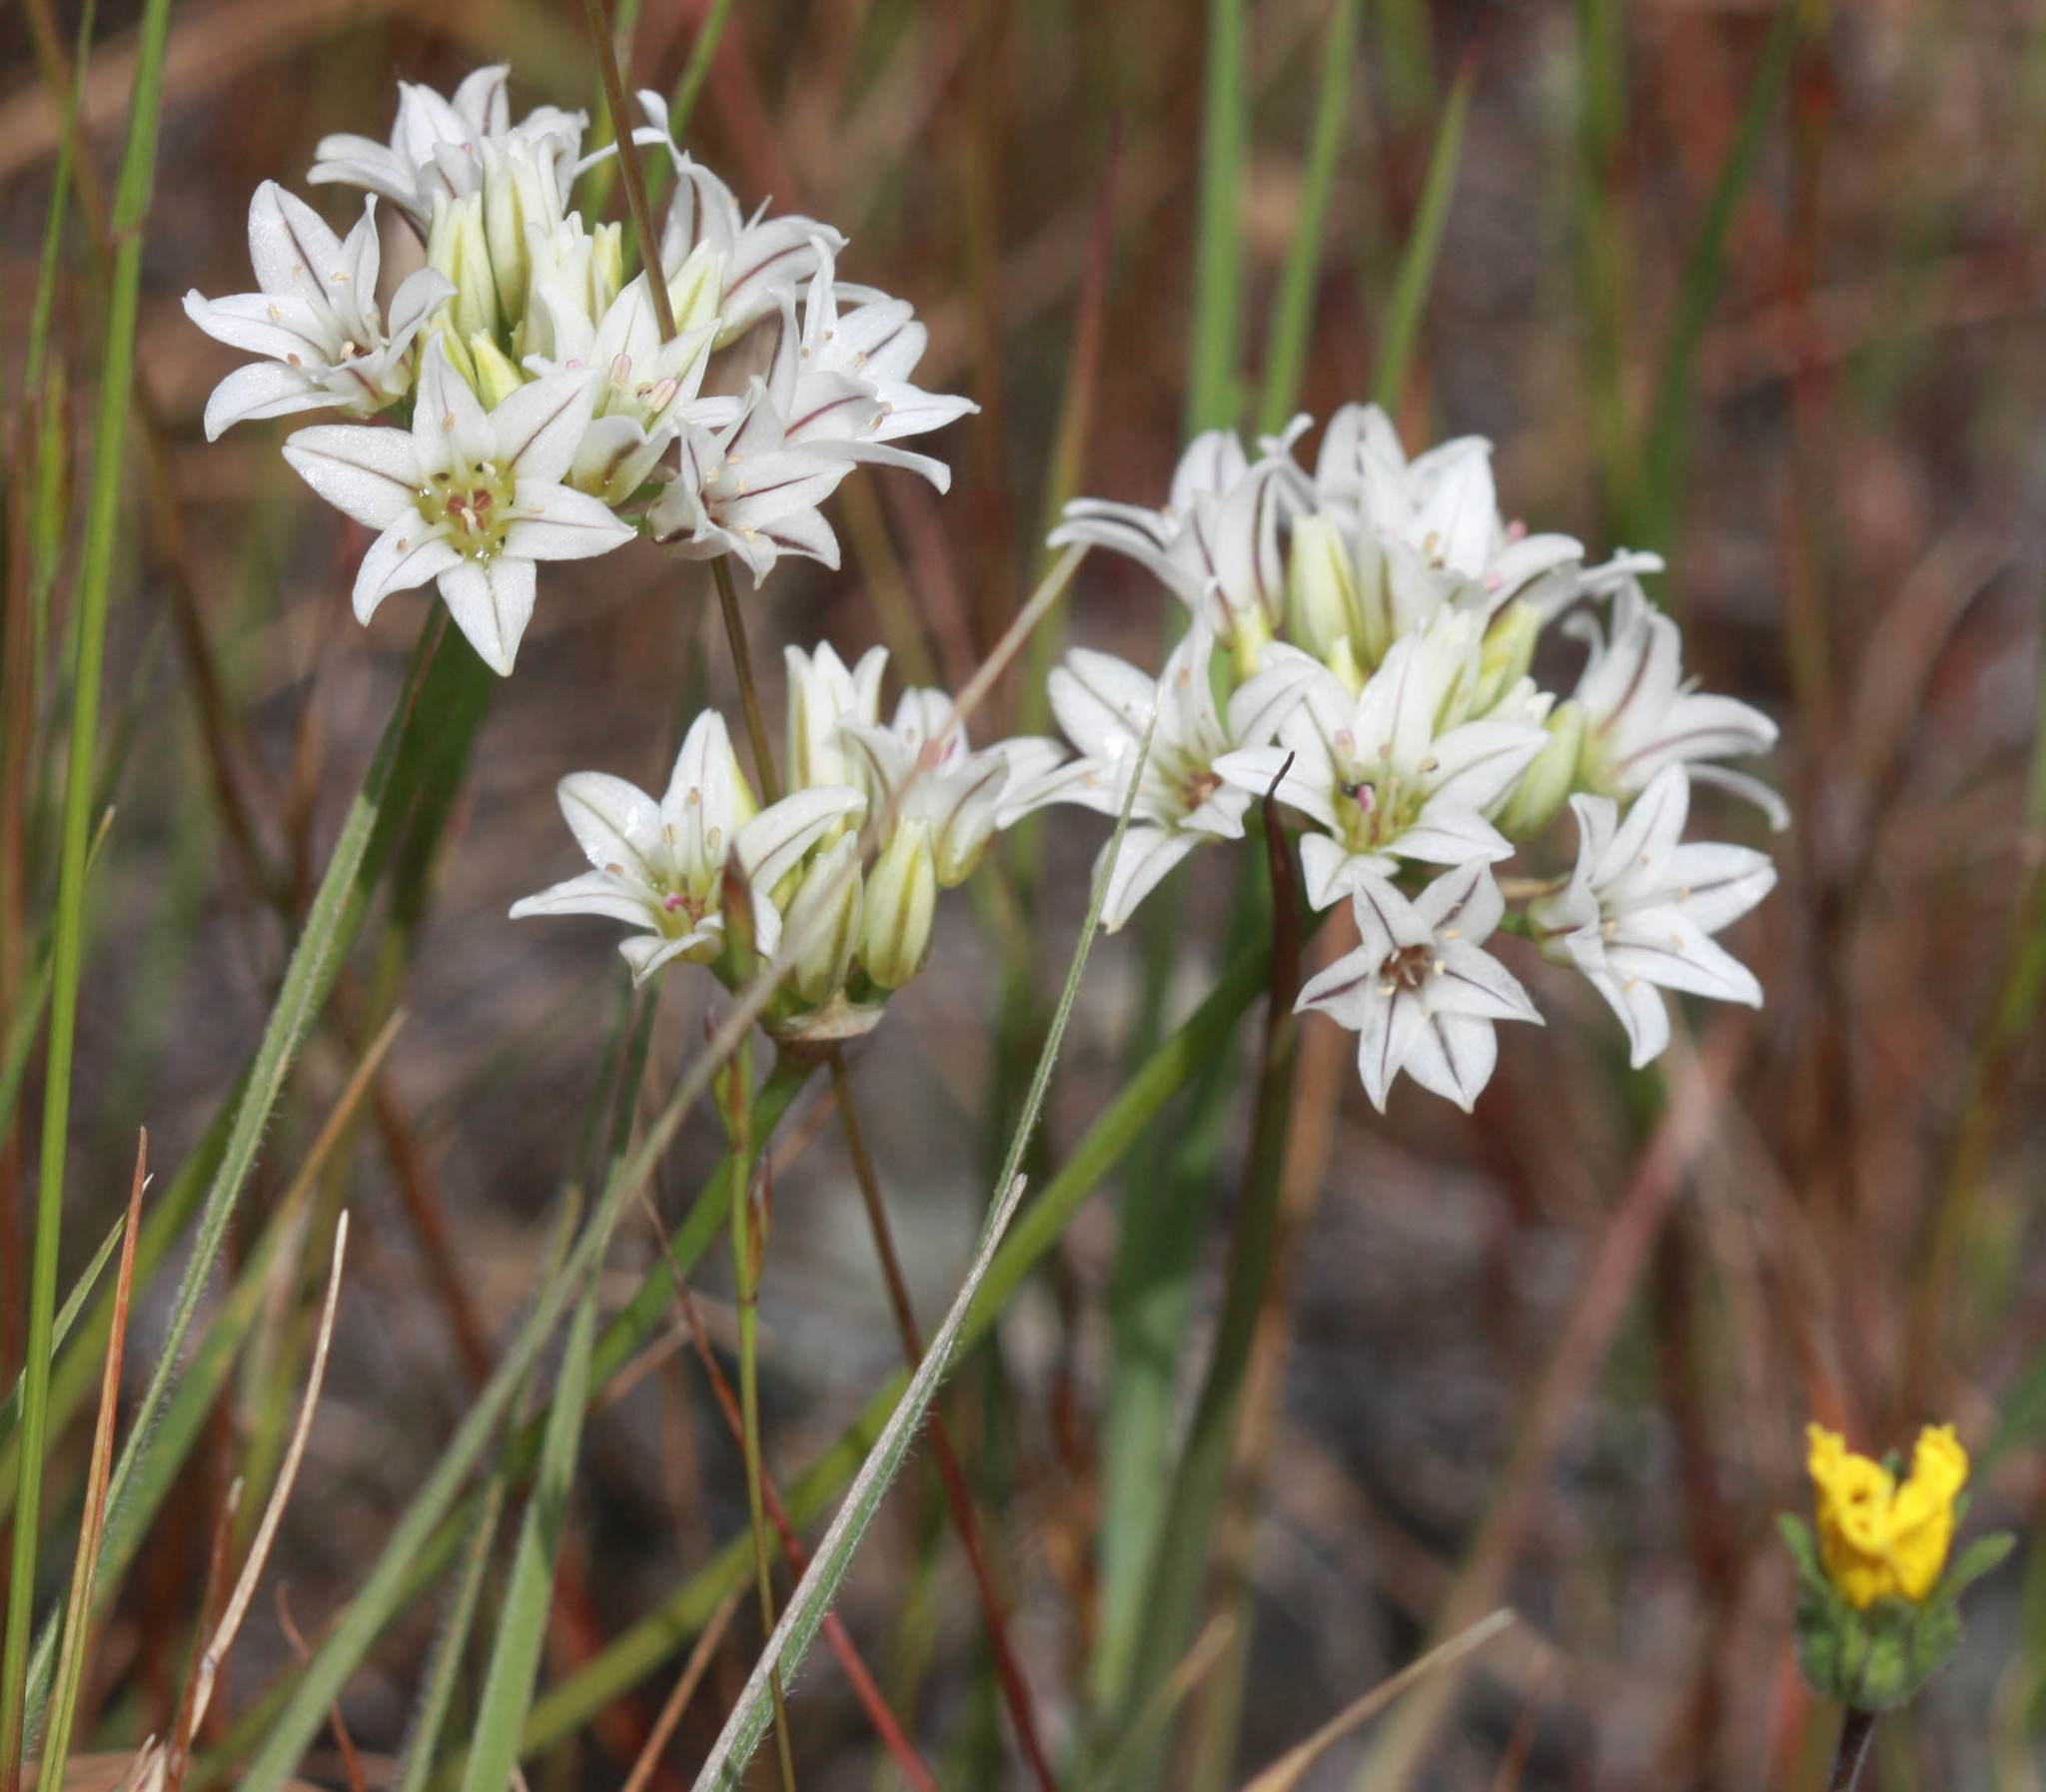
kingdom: Plantae
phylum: Tracheophyta
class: Liliopsida
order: Asparagales
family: Amaryllidaceae
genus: Allium
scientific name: Allium lacunosum
